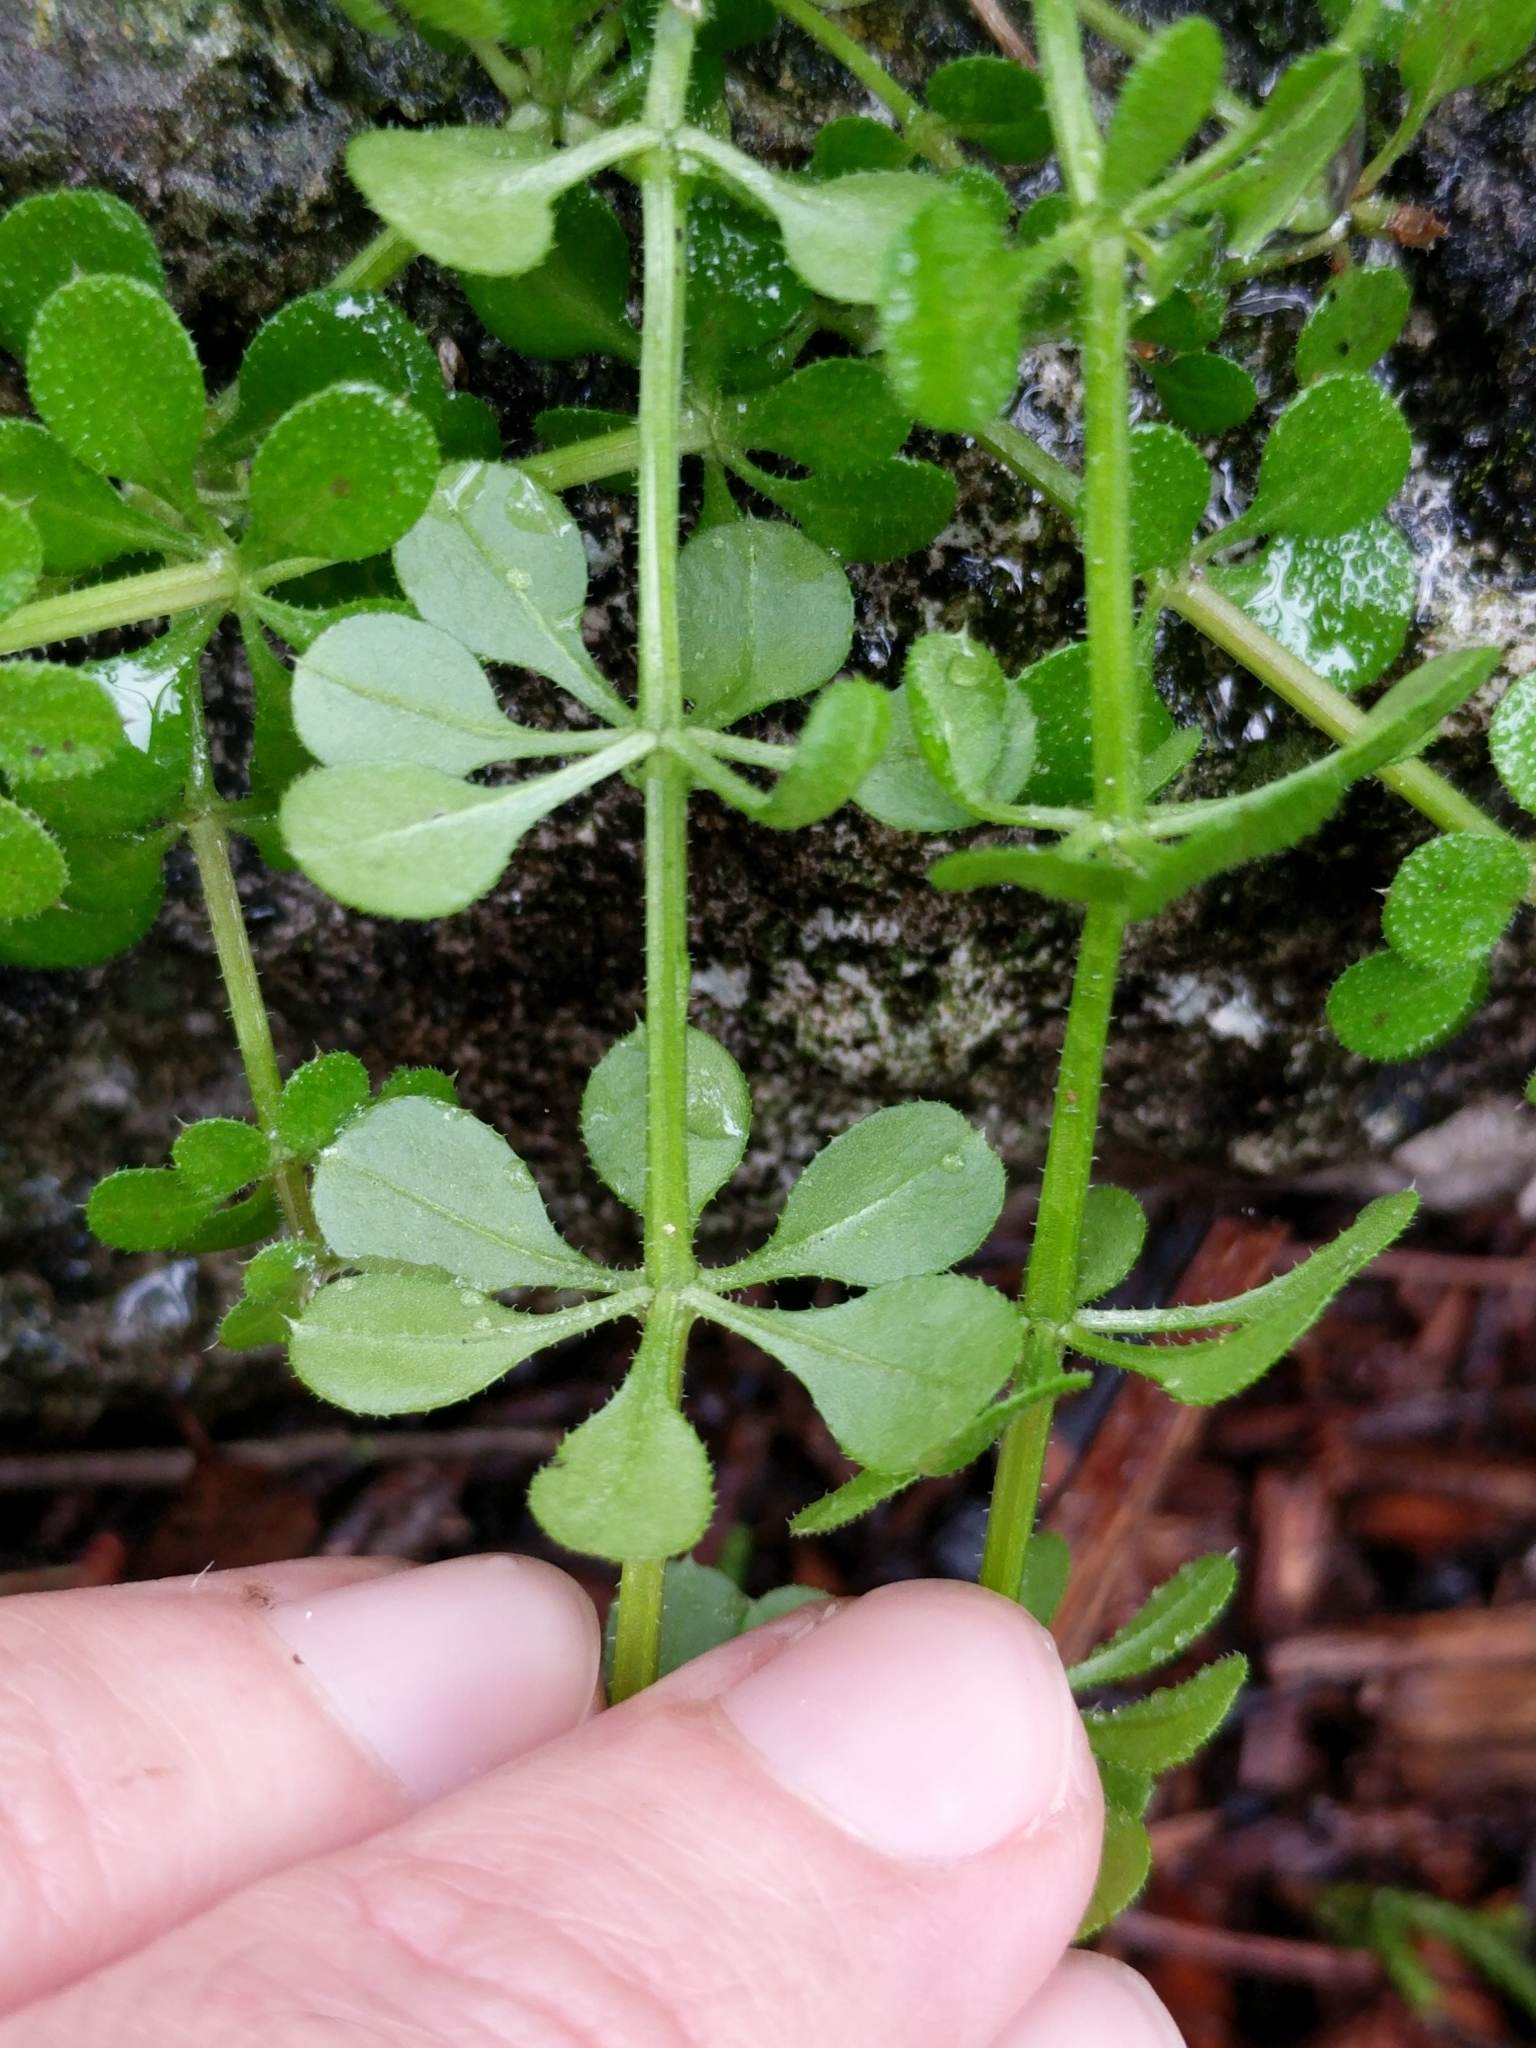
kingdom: Plantae
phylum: Tracheophyta
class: Magnoliopsida
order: Gentianales
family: Rubiaceae
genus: Galium
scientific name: Galium aparine
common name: Cleavers
